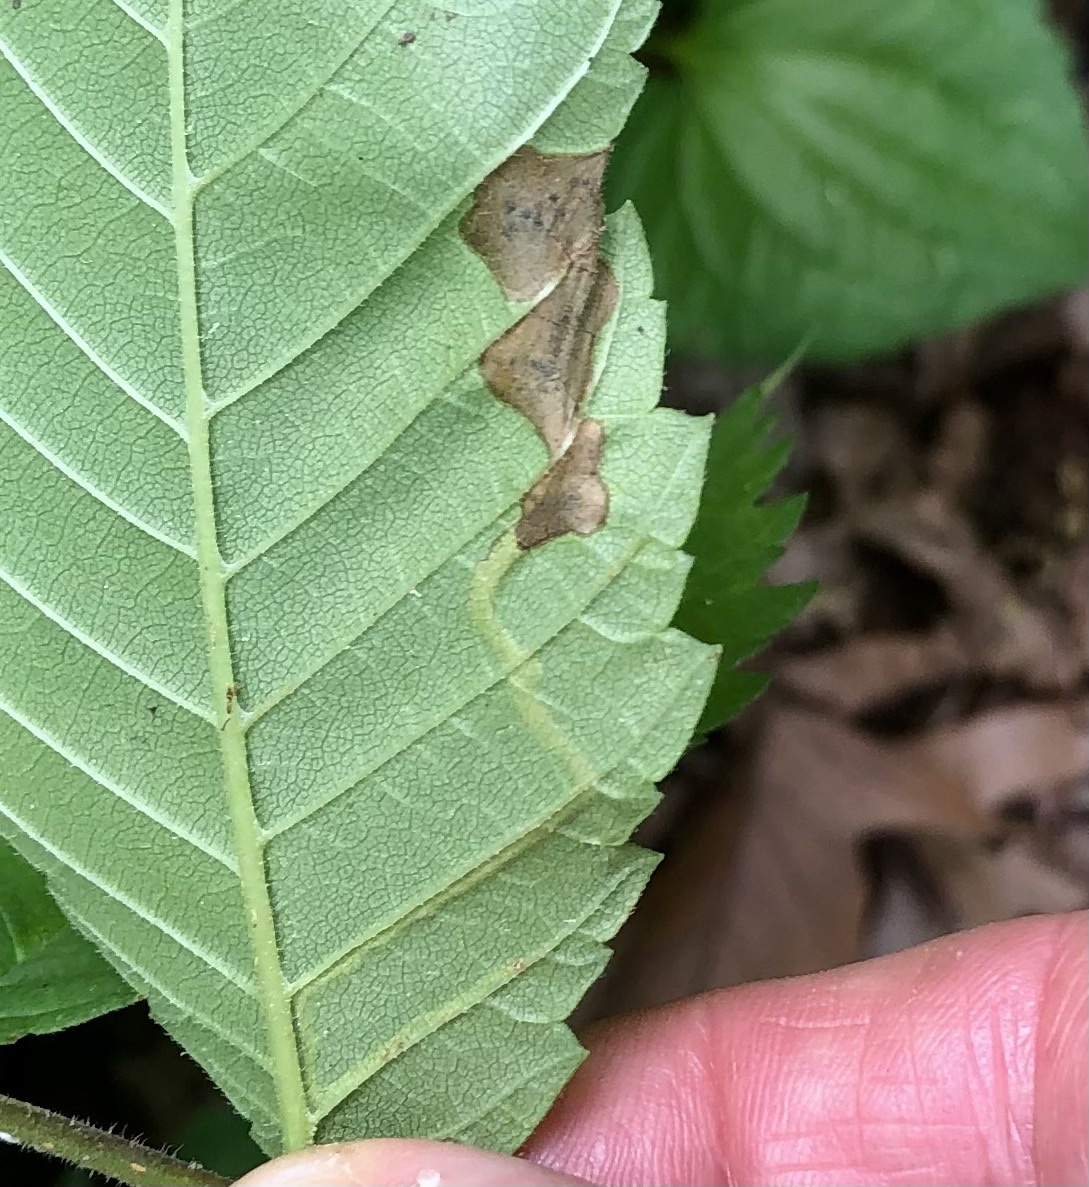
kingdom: Animalia
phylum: Arthropoda
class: Insecta
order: Diptera
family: Agromyzidae
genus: Agromyza
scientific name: Agromyza aristata
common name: Elm agromyzid leafminer
